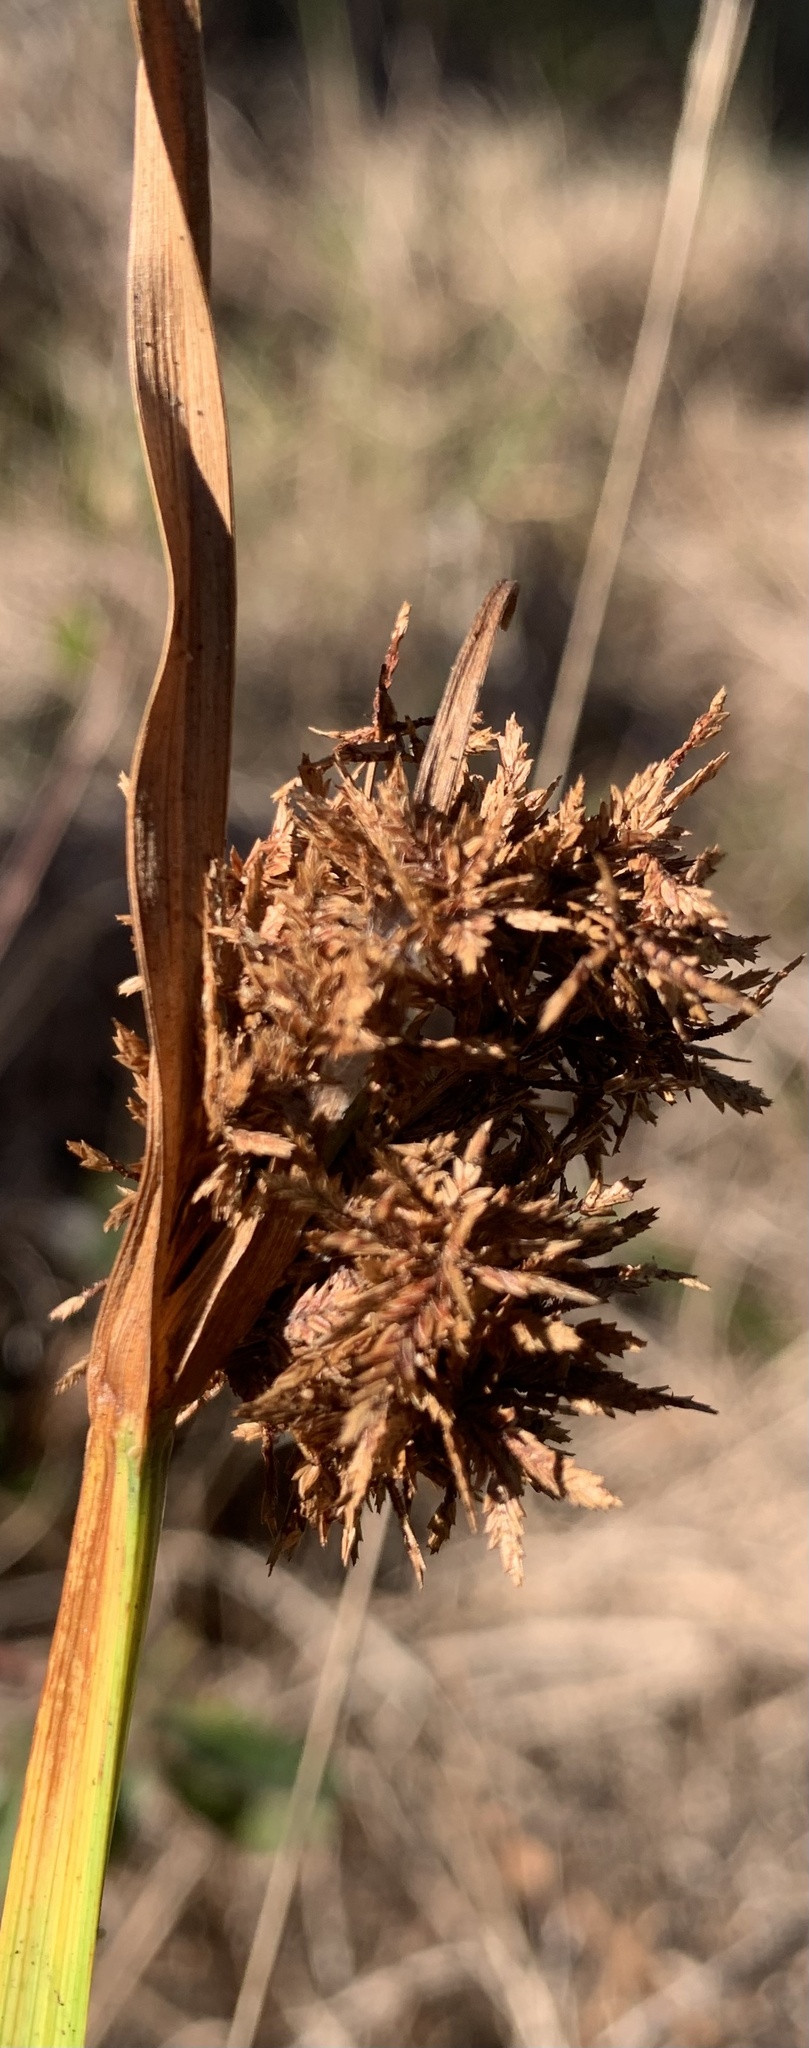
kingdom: Plantae
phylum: Tracheophyta
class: Liliopsida
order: Poales
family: Cyperaceae
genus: Cyperus
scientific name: Cyperus haspan
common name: Haspan flatsedge
